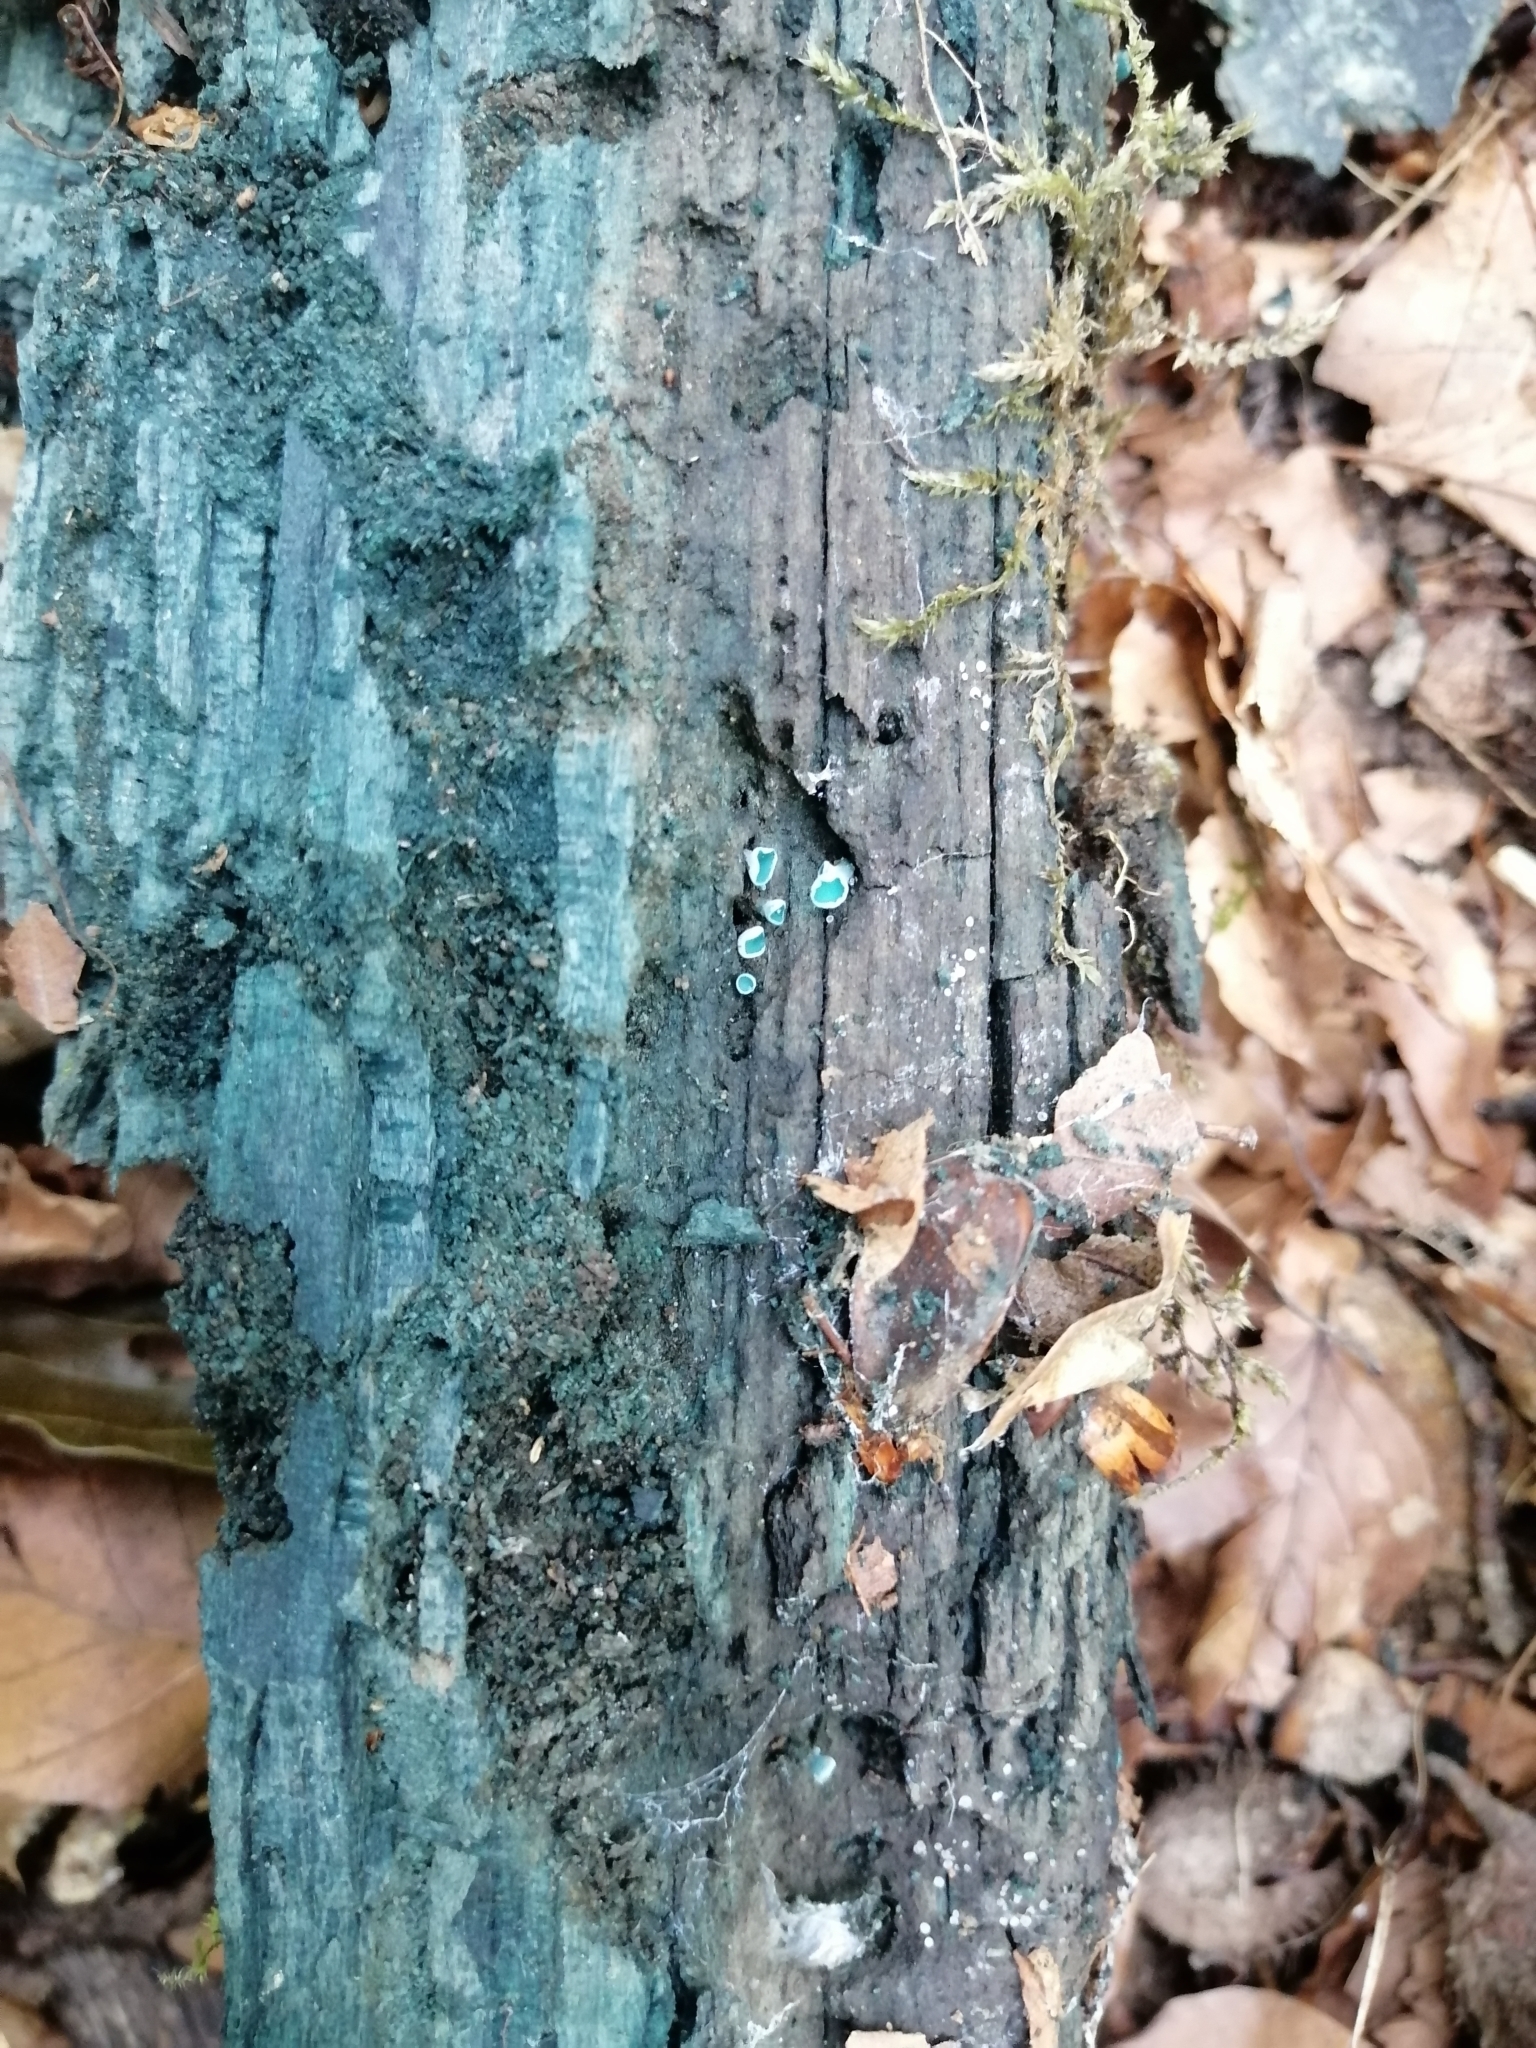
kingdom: Fungi
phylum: Ascomycota
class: Leotiomycetes
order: Helotiales
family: Chlorociboriaceae
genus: Chlorociboria
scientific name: Chlorociboria aeruginascens
